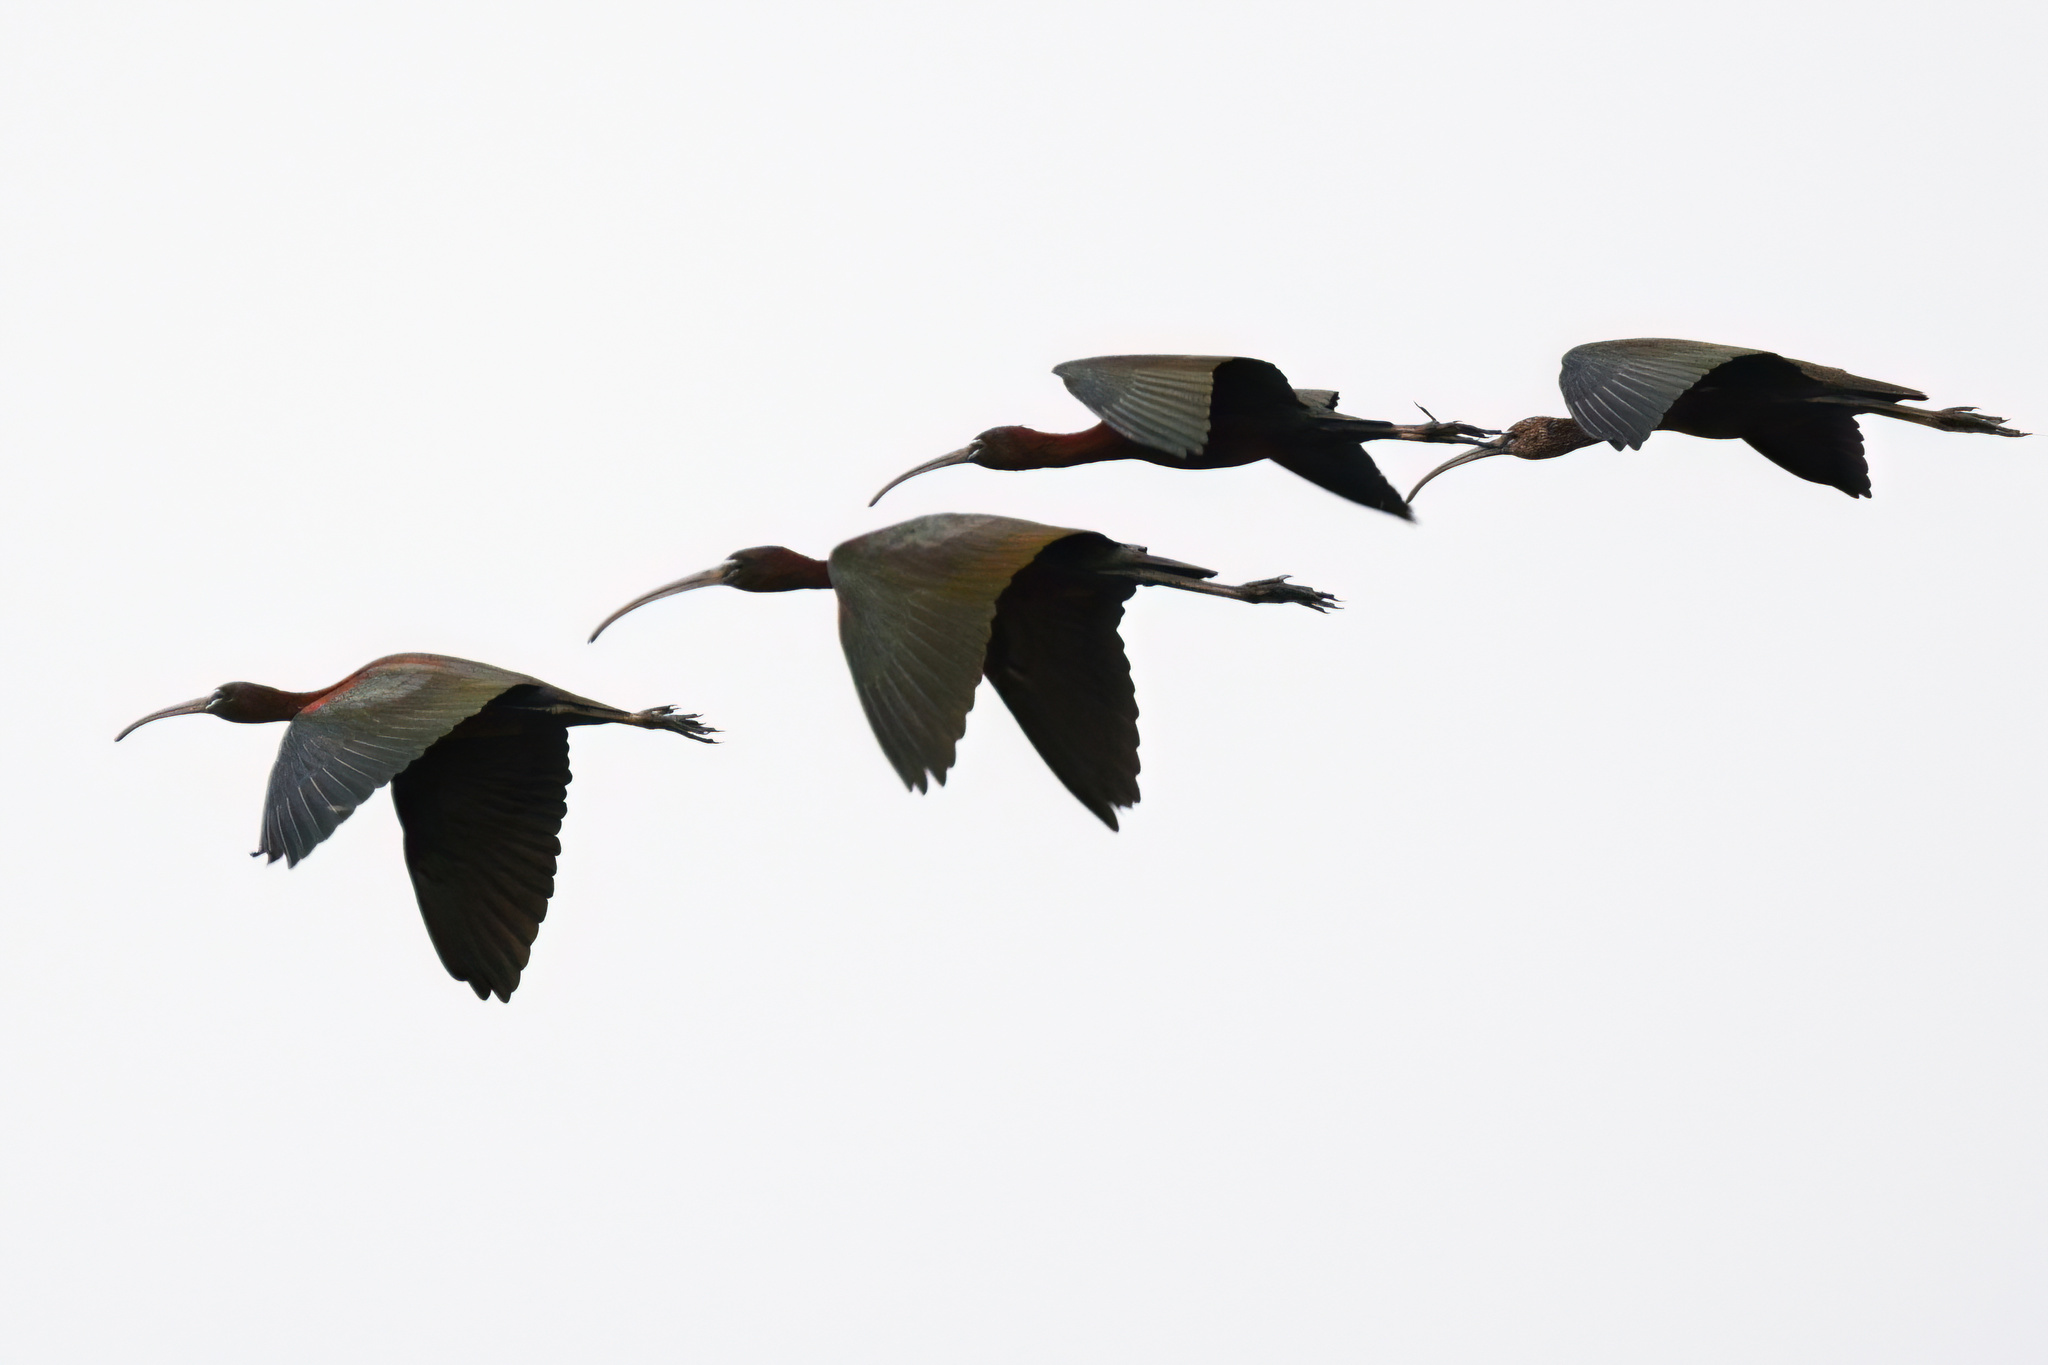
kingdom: Animalia
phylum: Chordata
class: Aves
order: Pelecaniformes
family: Threskiornithidae
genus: Plegadis
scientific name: Plegadis falcinellus
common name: Glossy ibis
